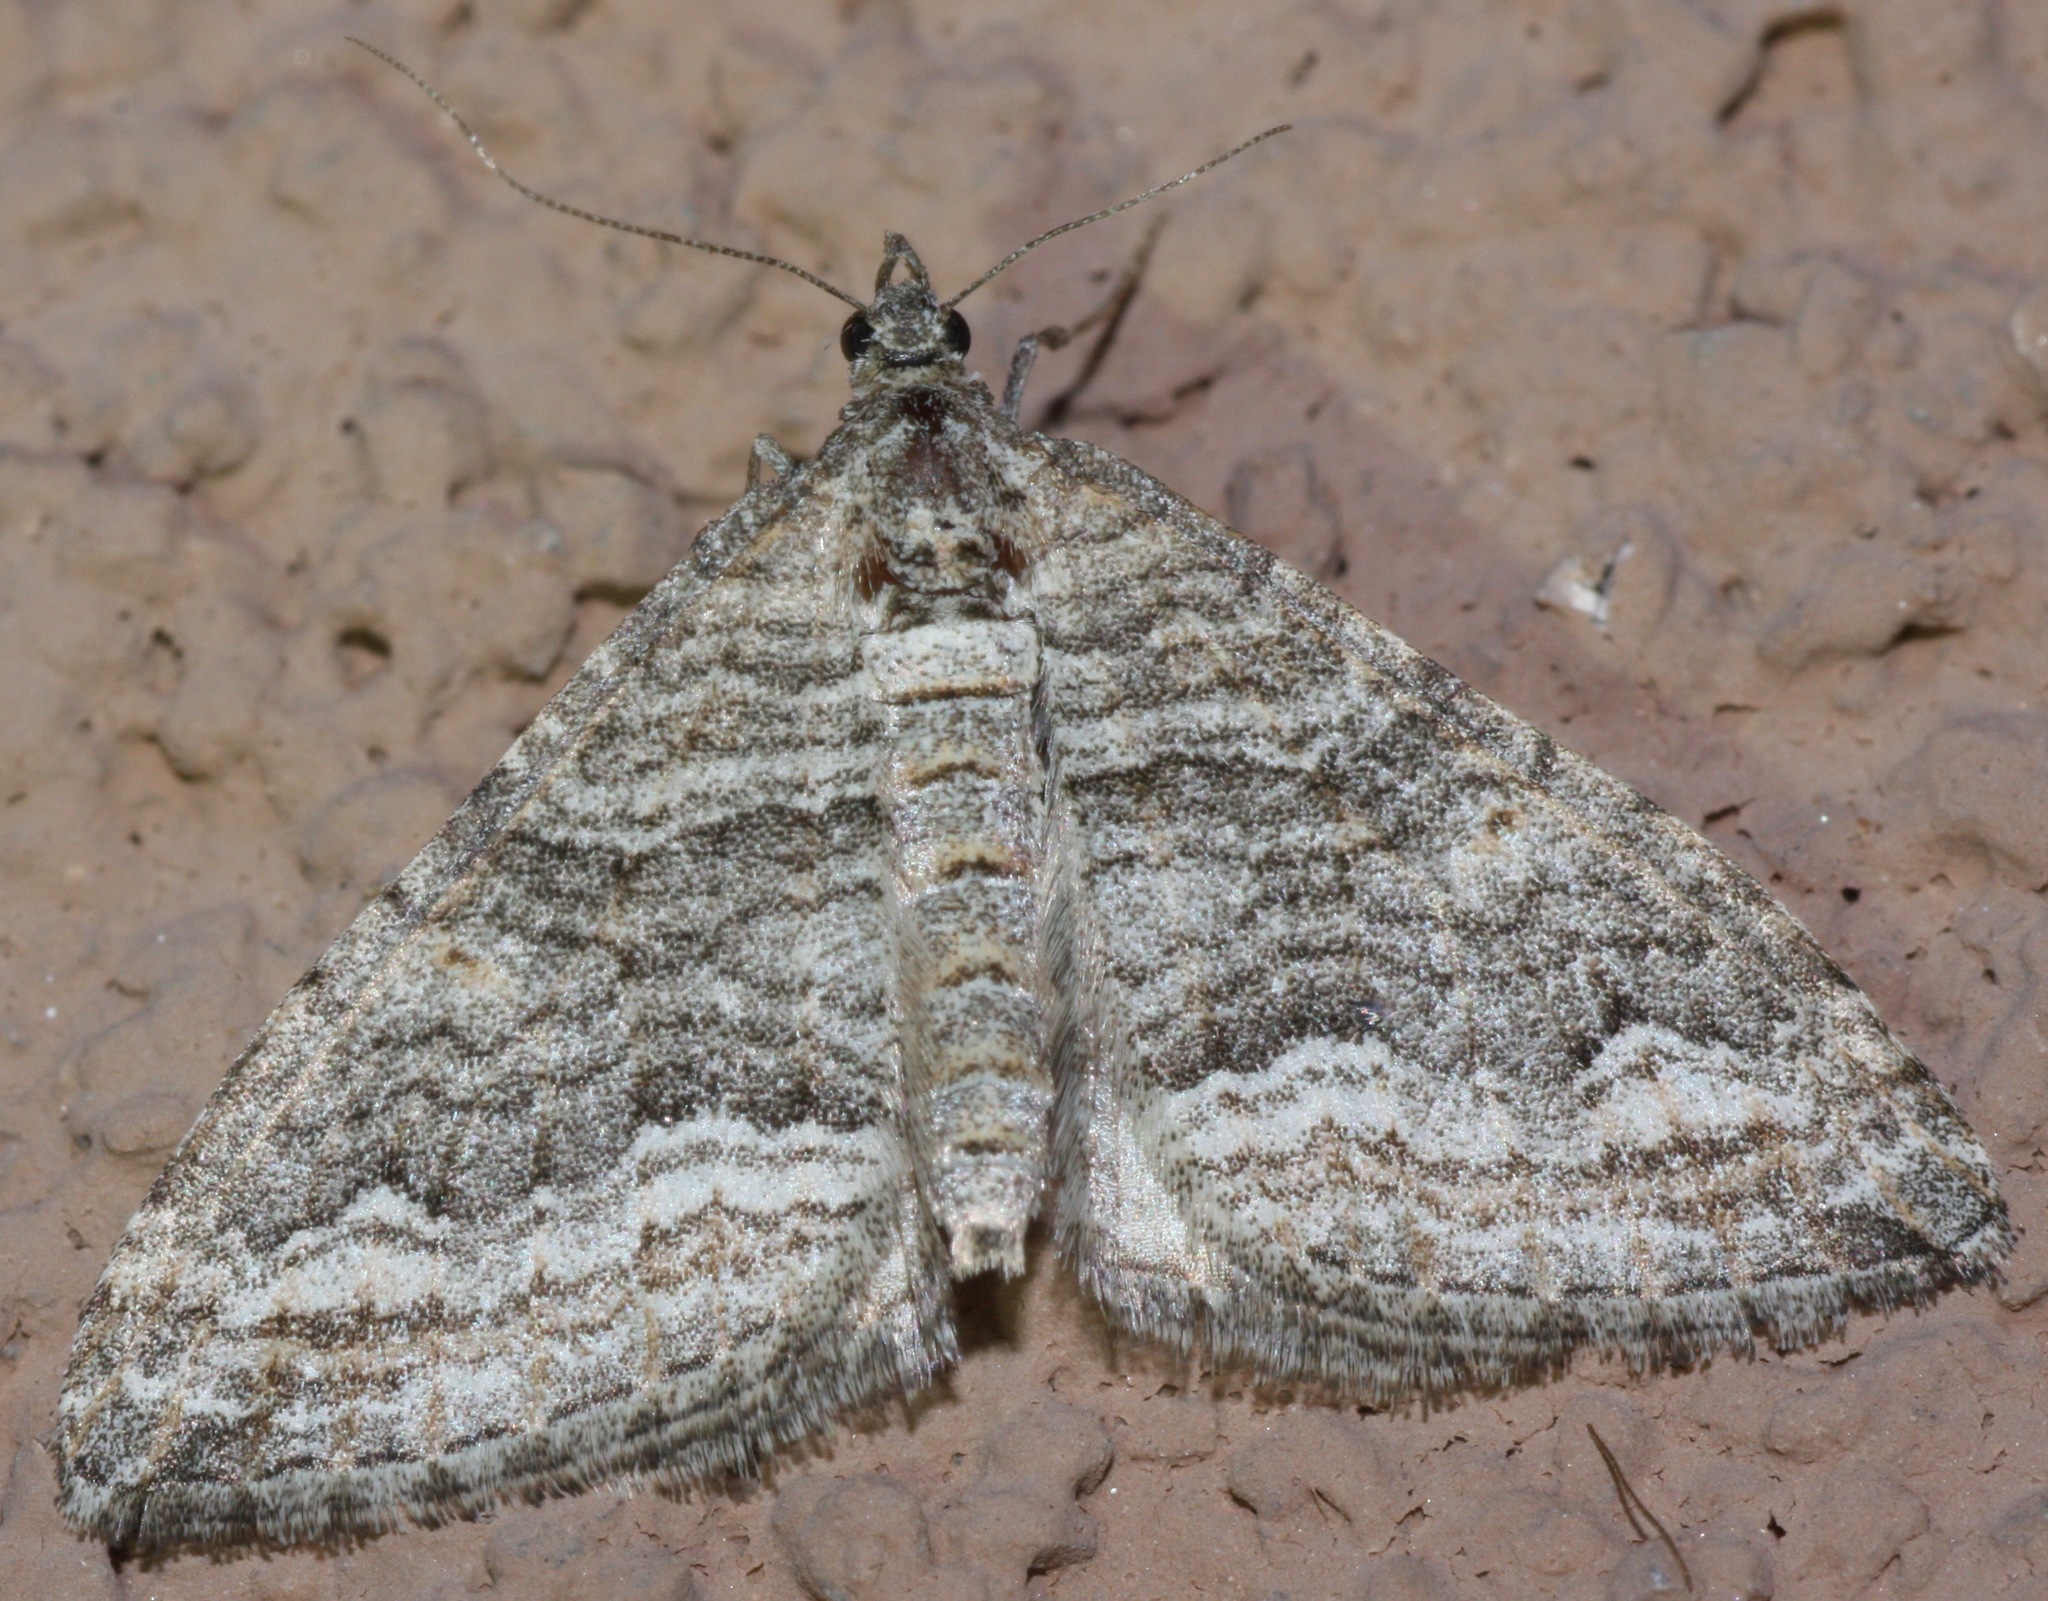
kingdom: Animalia
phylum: Arthropoda
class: Insecta
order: Lepidoptera
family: Geometridae
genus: Perizoma
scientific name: Perizoma custodiata
